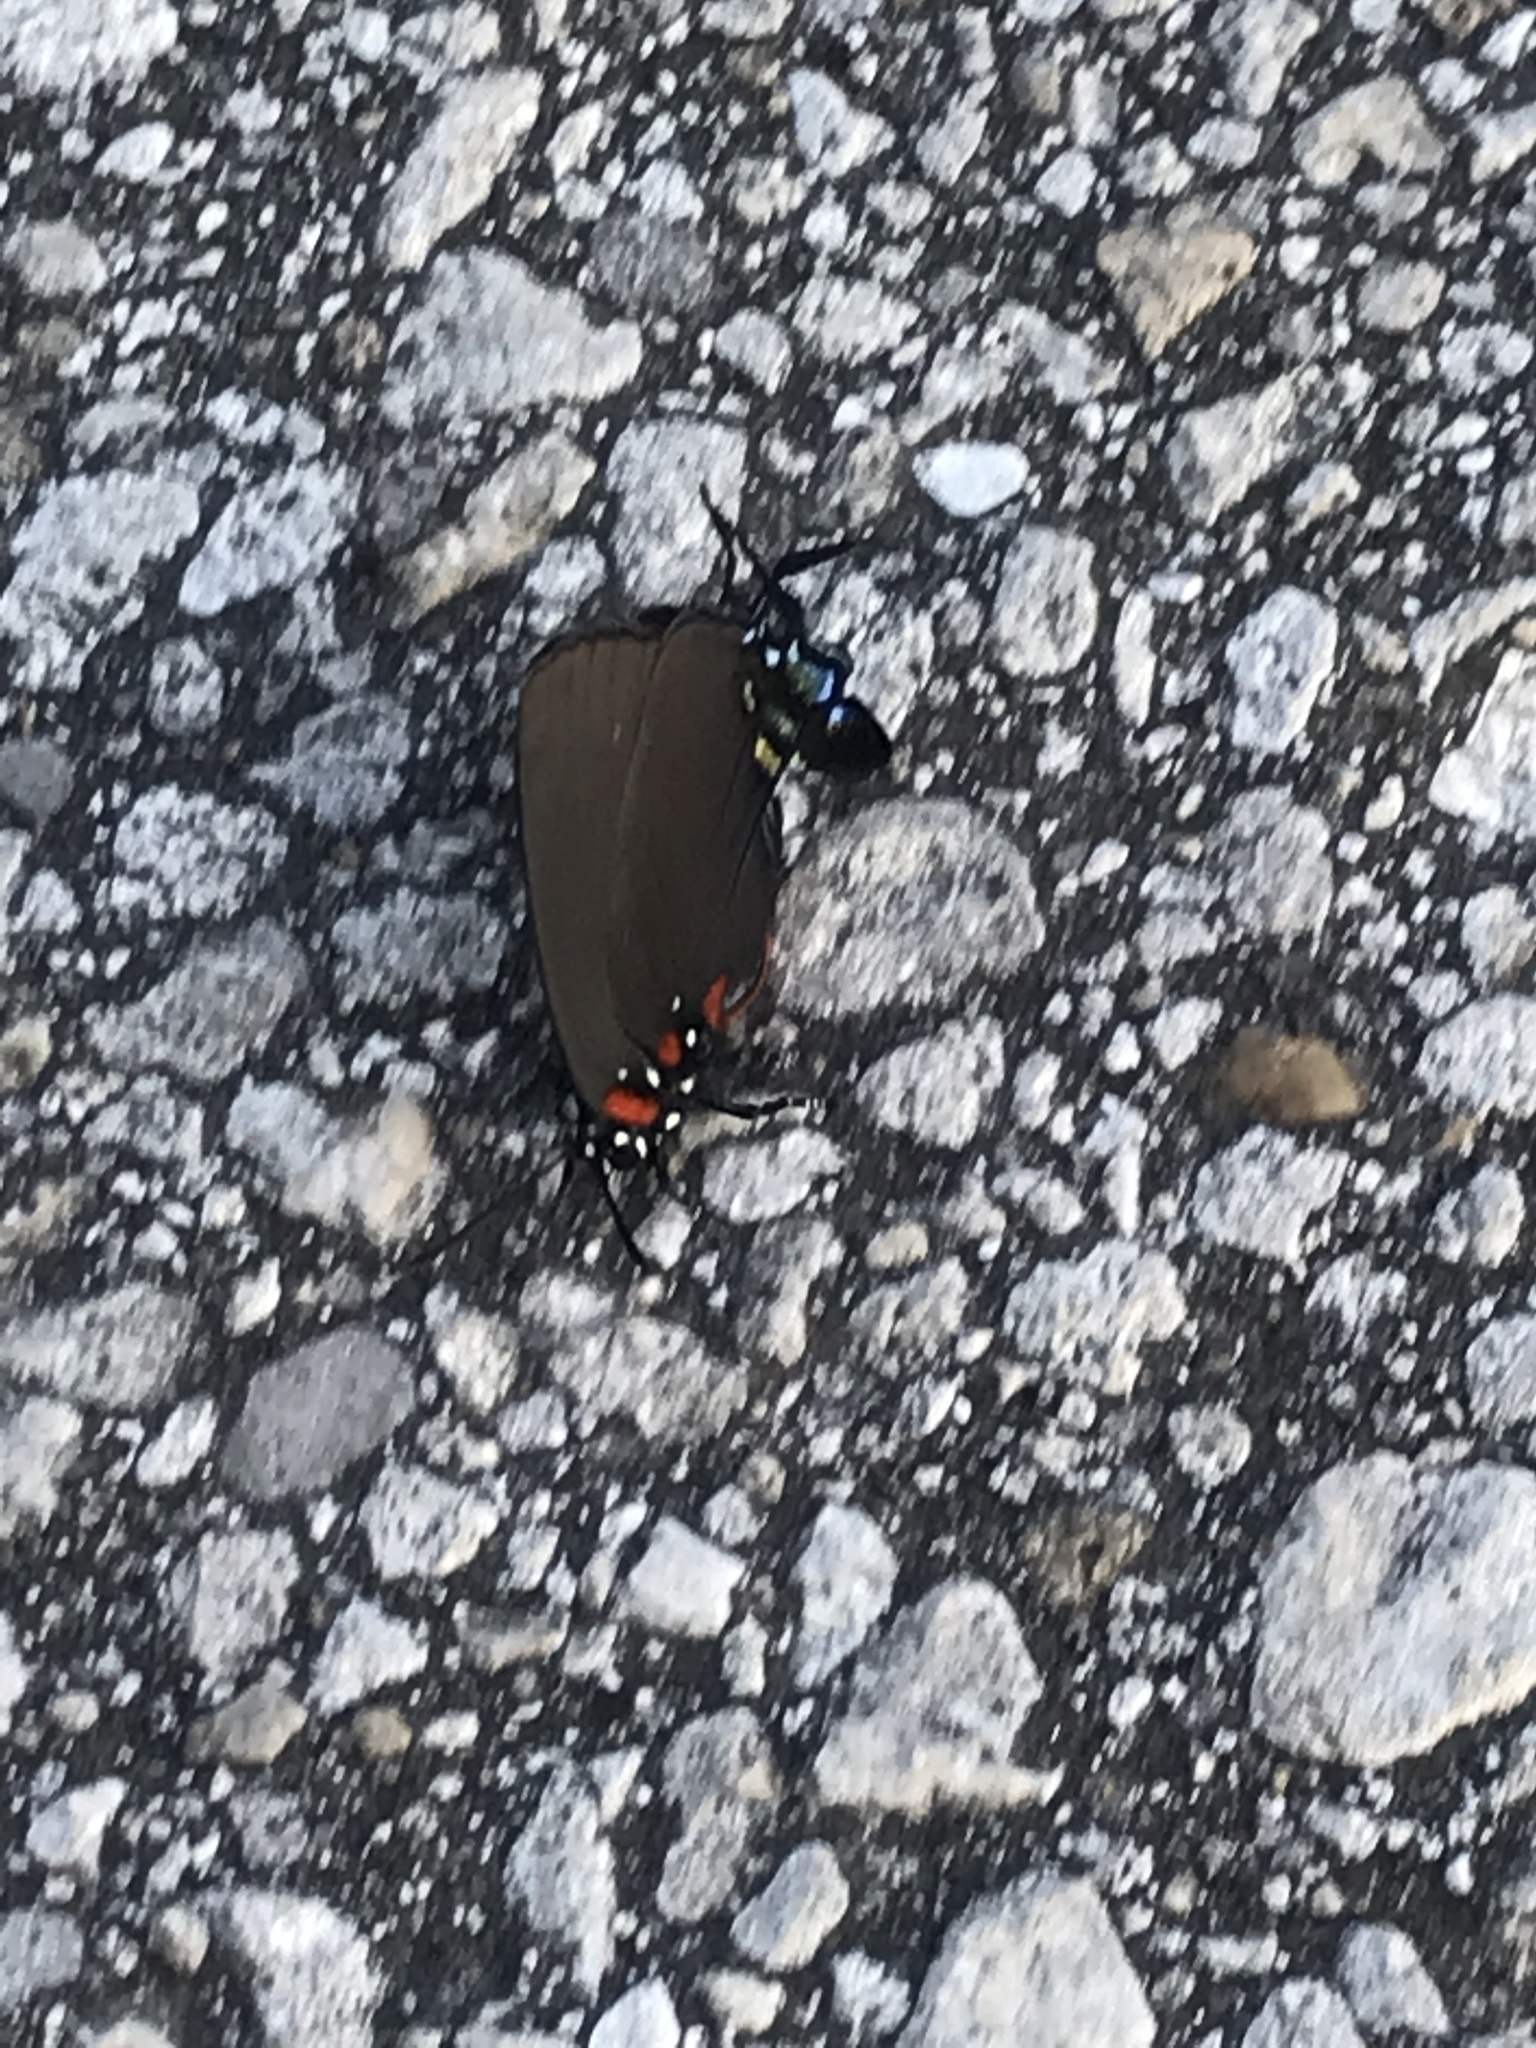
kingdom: Animalia
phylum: Arthropoda
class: Insecta
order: Lepidoptera
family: Lycaenidae
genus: Atlides
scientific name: Atlides halesus
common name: Great purple hairstreak
